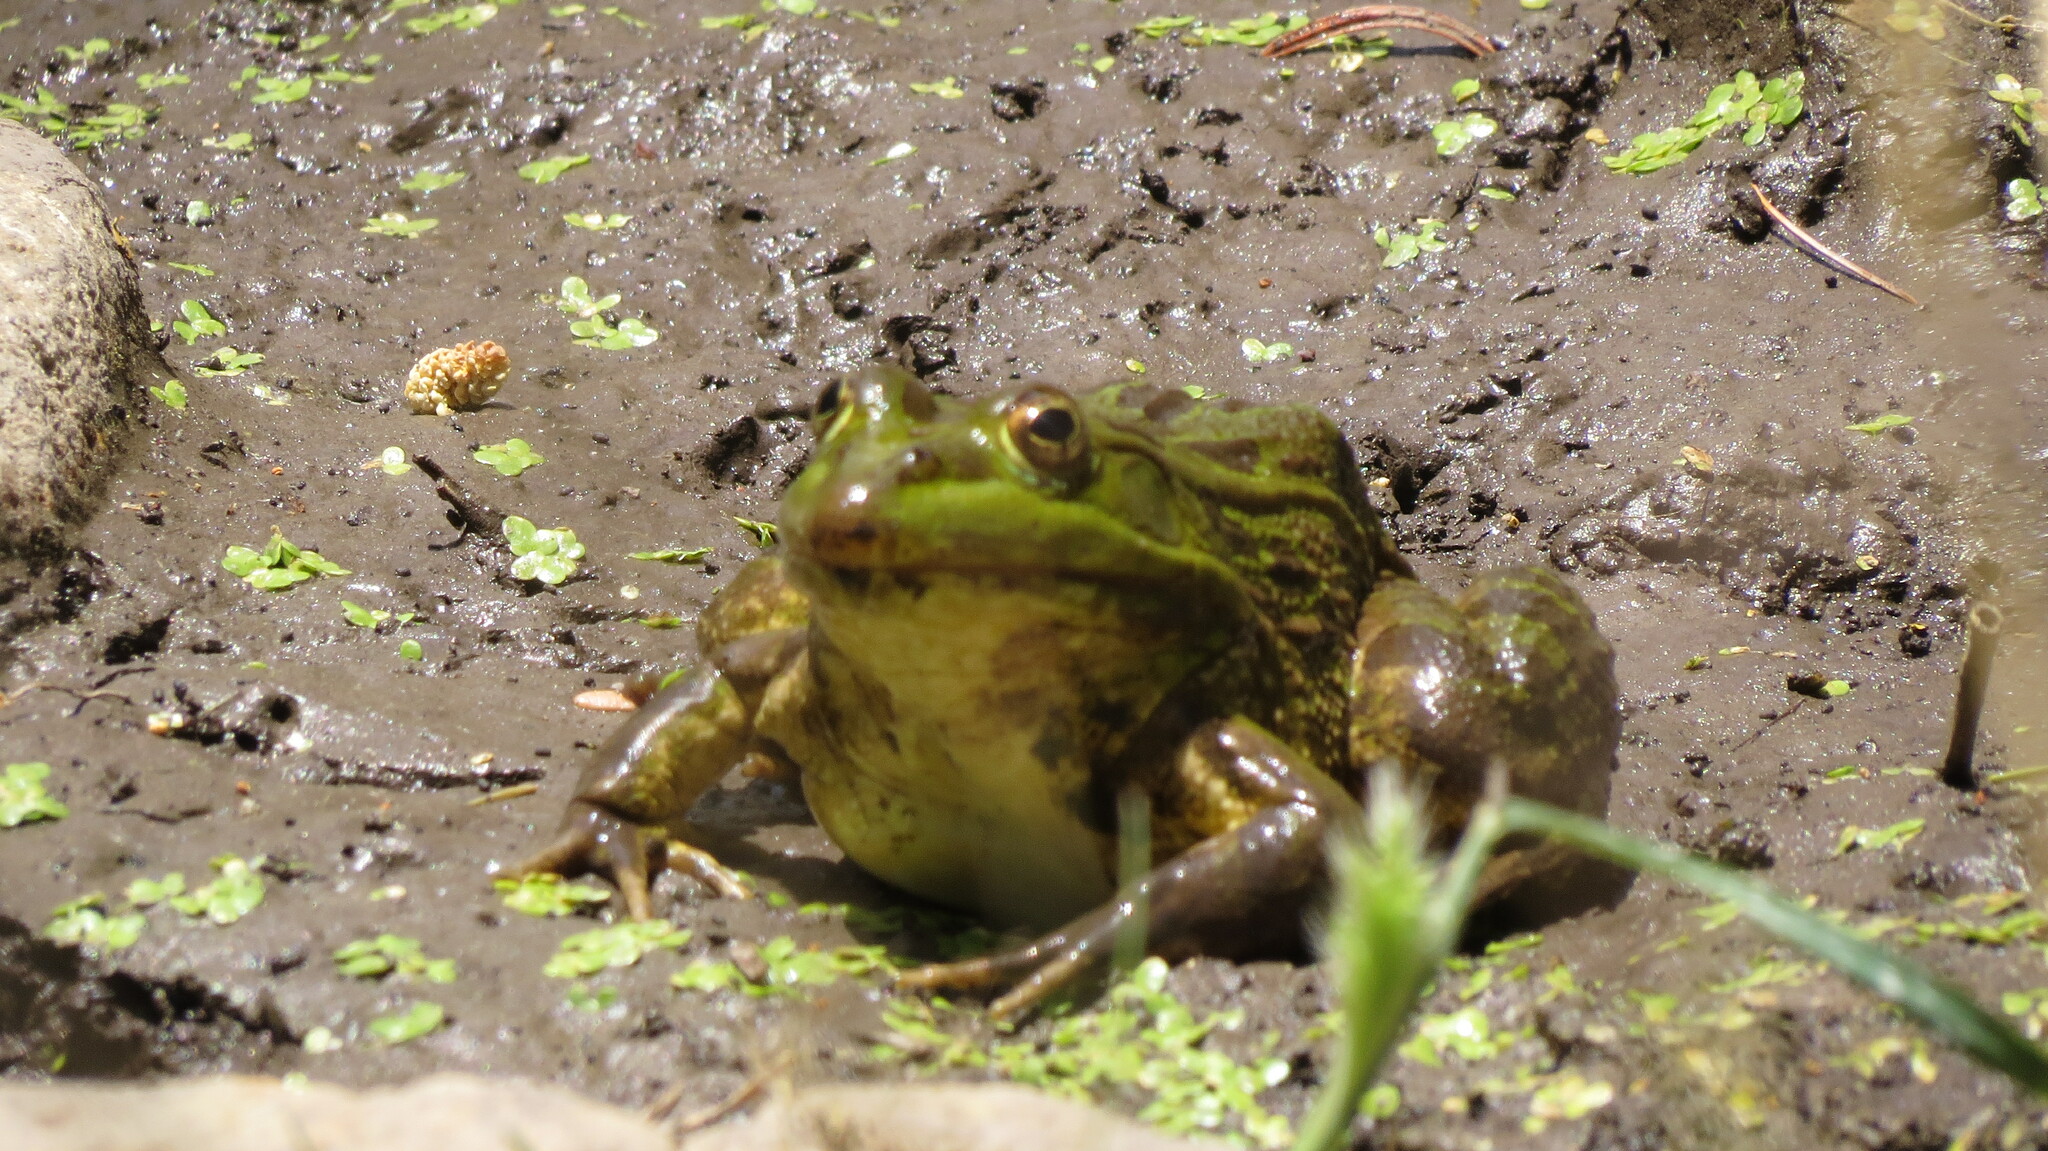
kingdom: Animalia
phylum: Chordata
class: Amphibia
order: Anura
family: Ranidae
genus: Lithobates
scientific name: Lithobates chiricahuensis
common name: Chiricahua leopard frog
